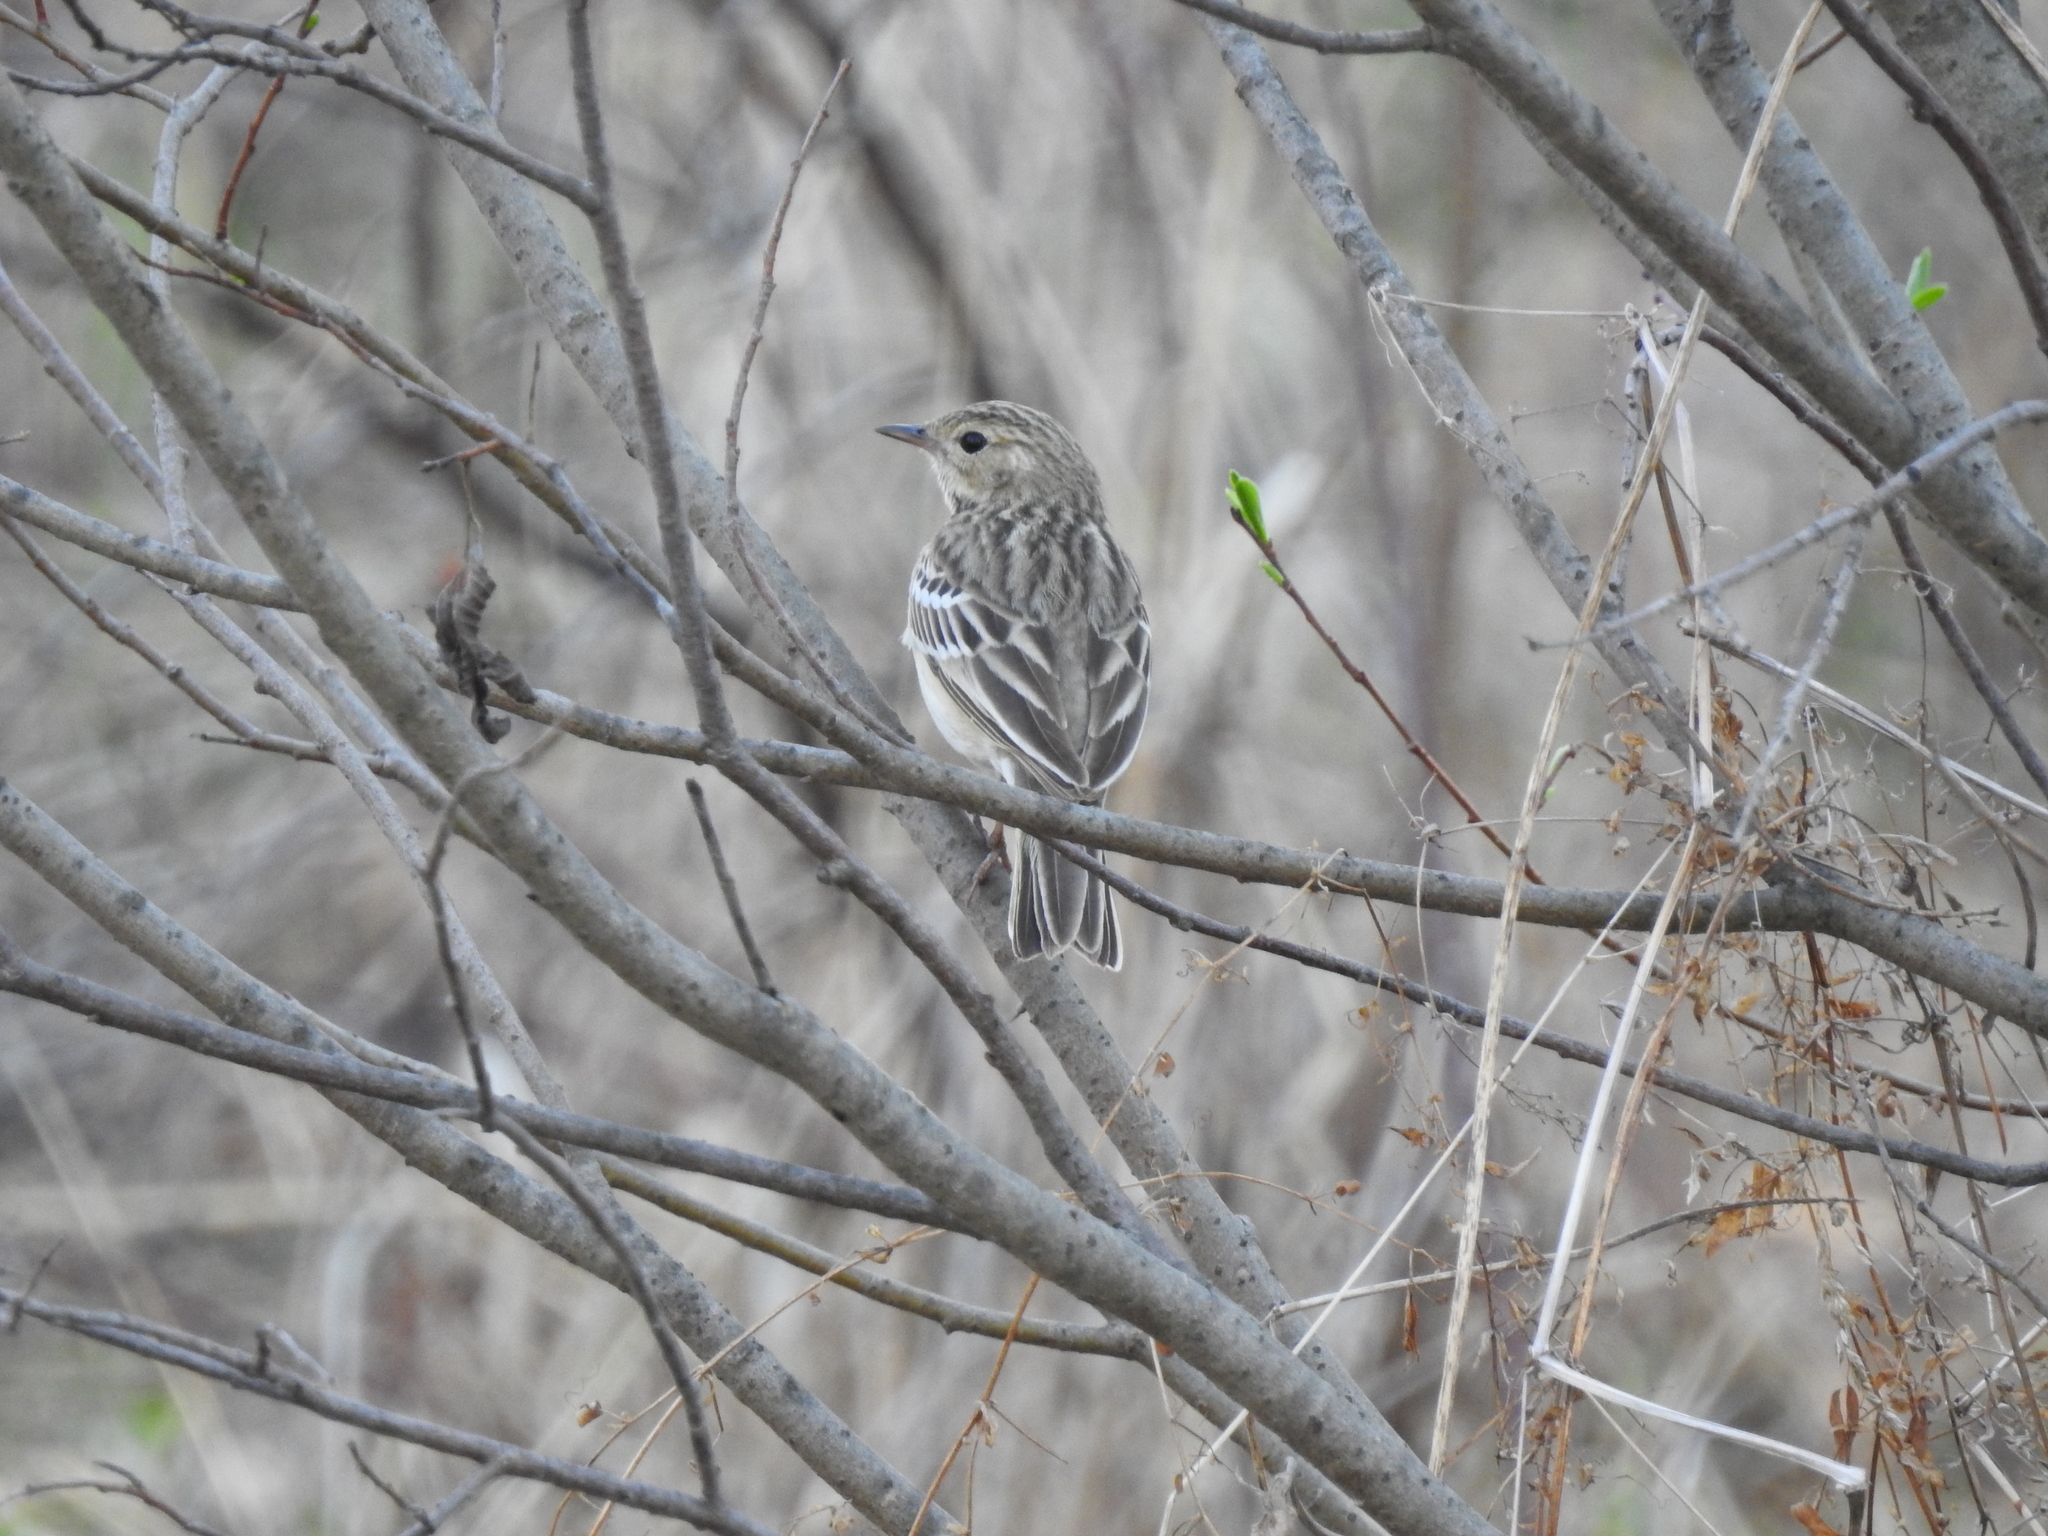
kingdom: Animalia
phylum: Chordata
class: Aves
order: Passeriformes
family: Motacillidae
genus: Anthus
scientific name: Anthus trivialis
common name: Tree pipit
